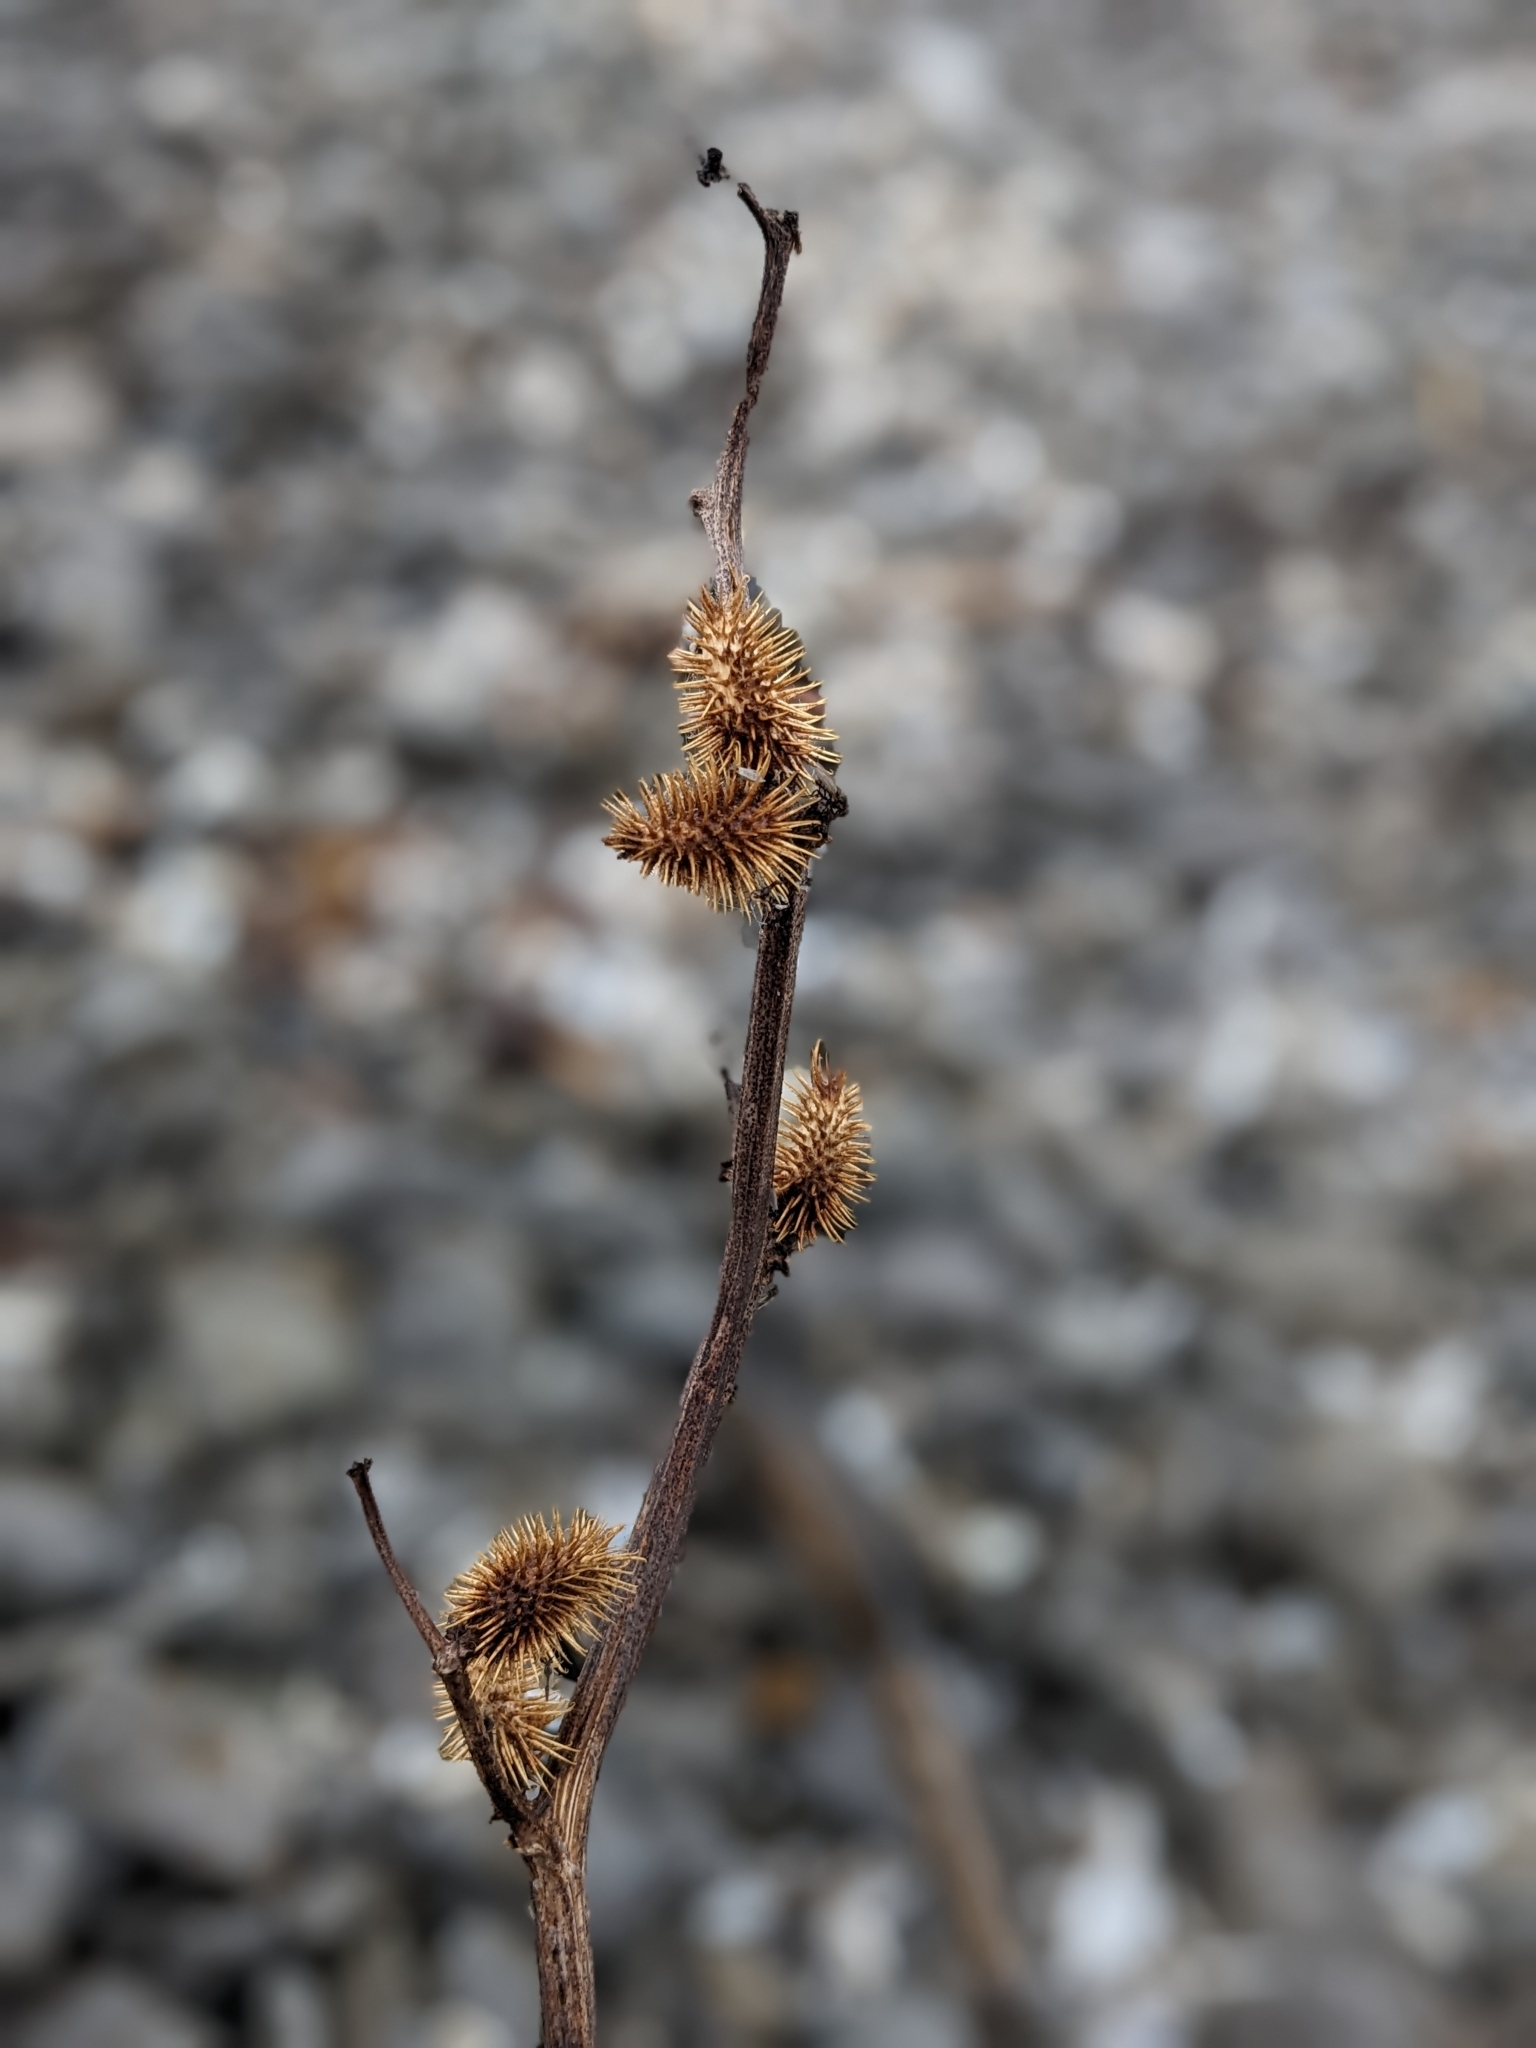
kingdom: Plantae
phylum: Tracheophyta
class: Magnoliopsida
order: Asterales
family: Asteraceae
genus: Xanthium
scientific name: Xanthium strumarium
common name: Rough cocklebur
